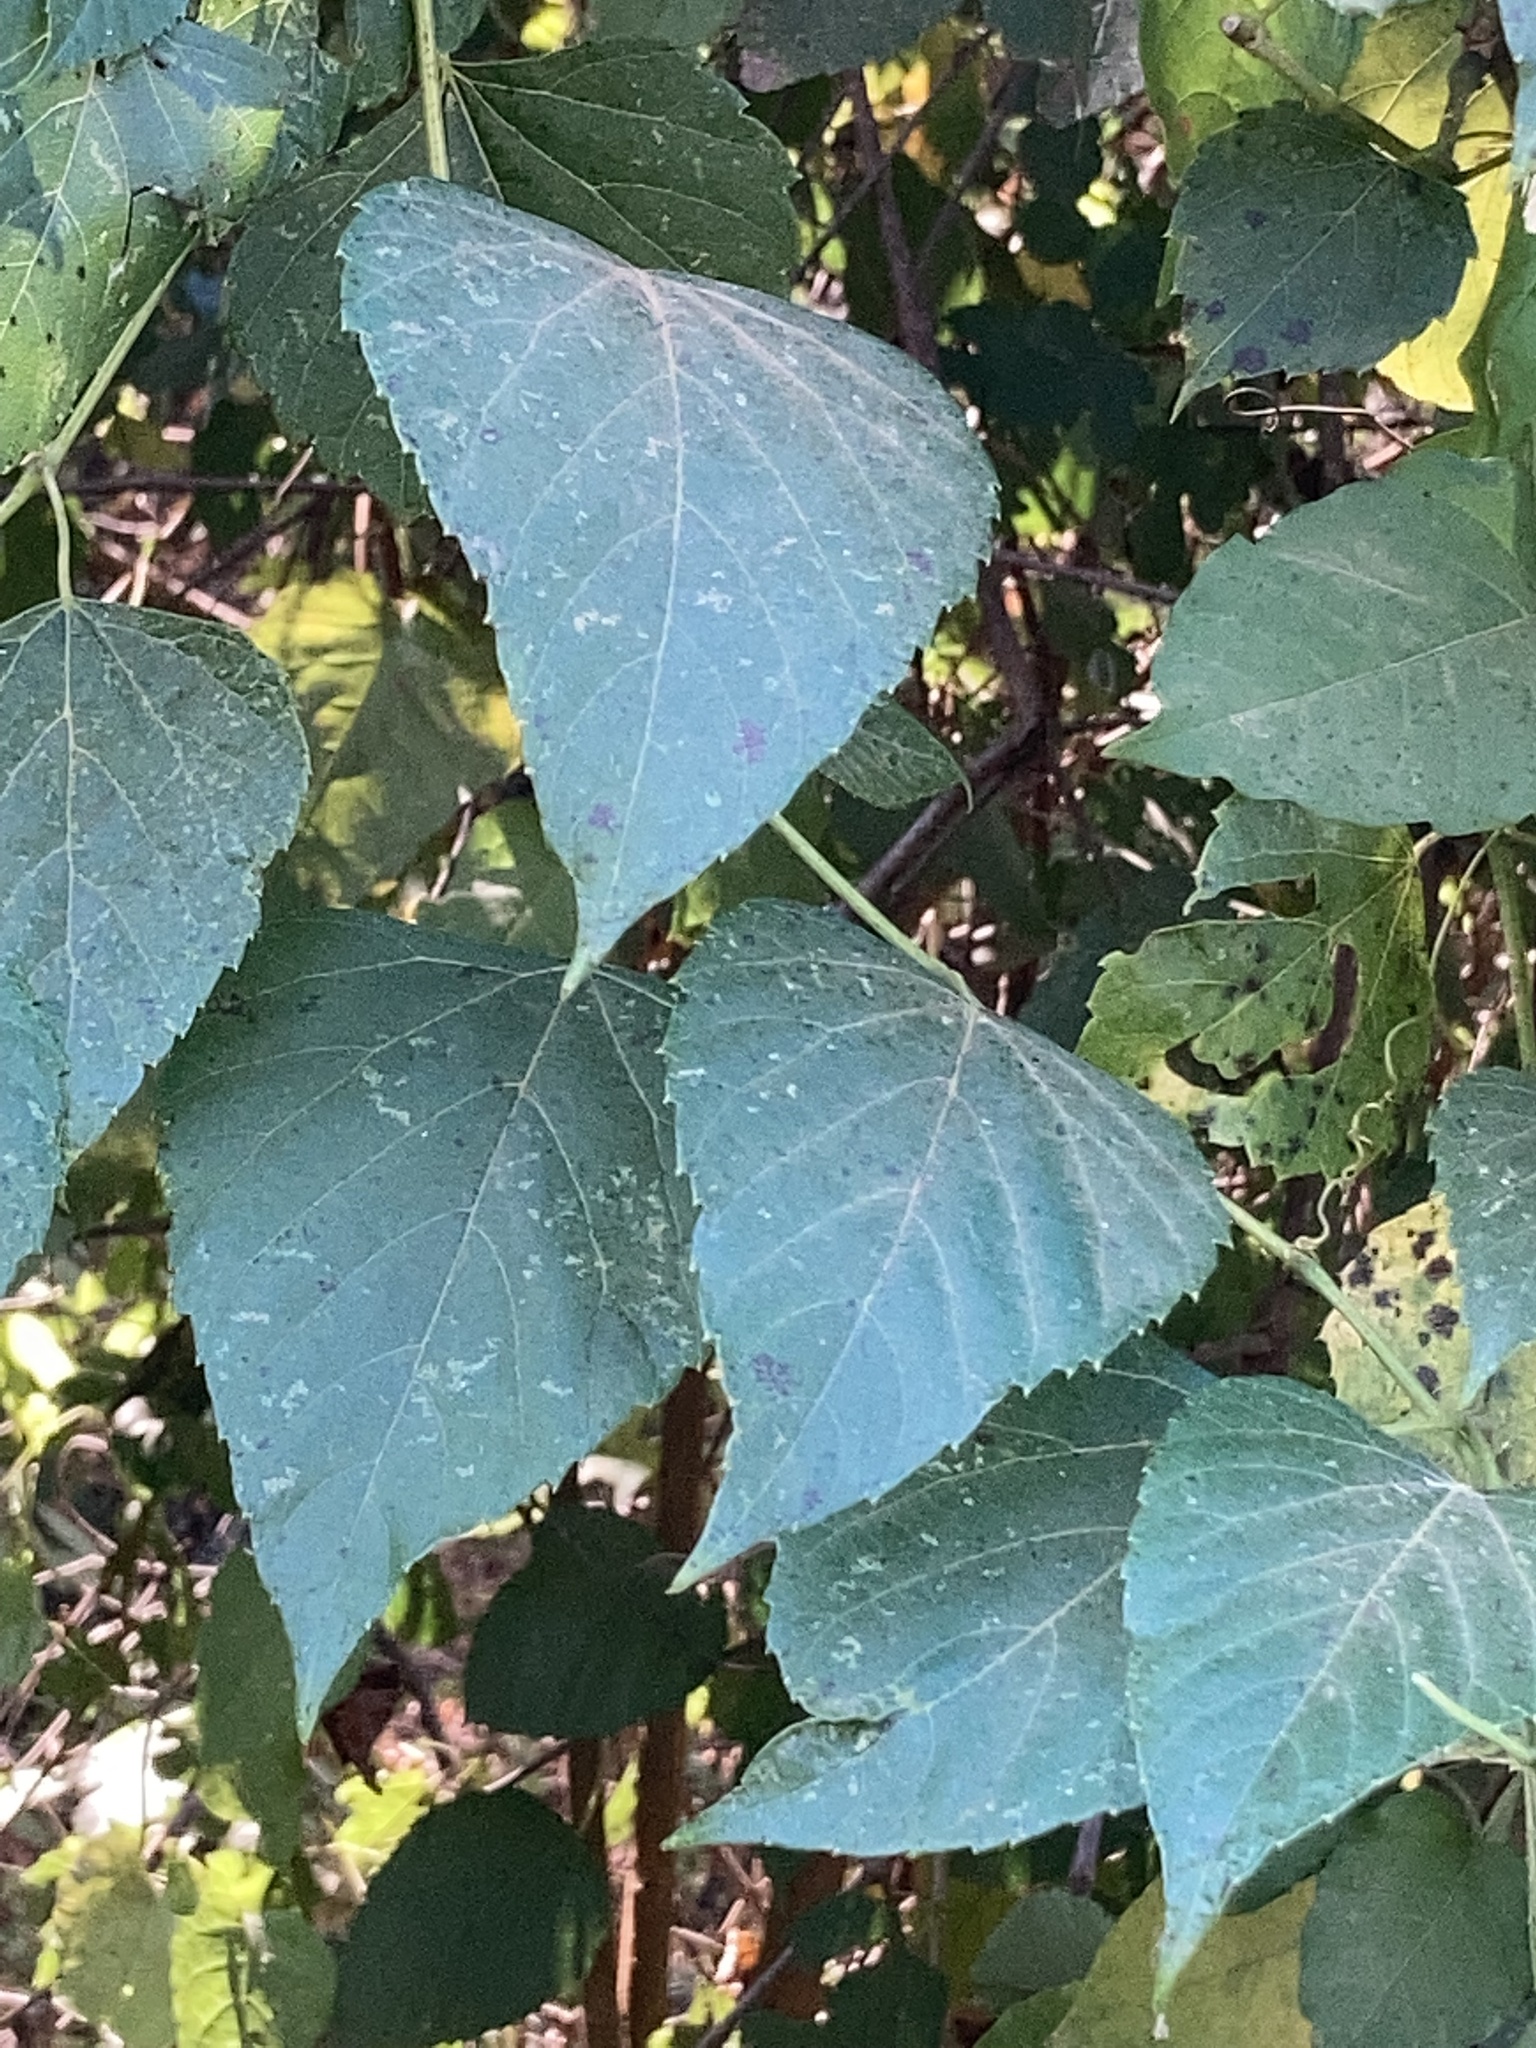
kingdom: Plantae
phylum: Tracheophyta
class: Magnoliopsida
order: Vitales
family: Vitaceae
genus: Ampelopsis
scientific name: Ampelopsis cordata
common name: Heart-leaf ampelopsis
